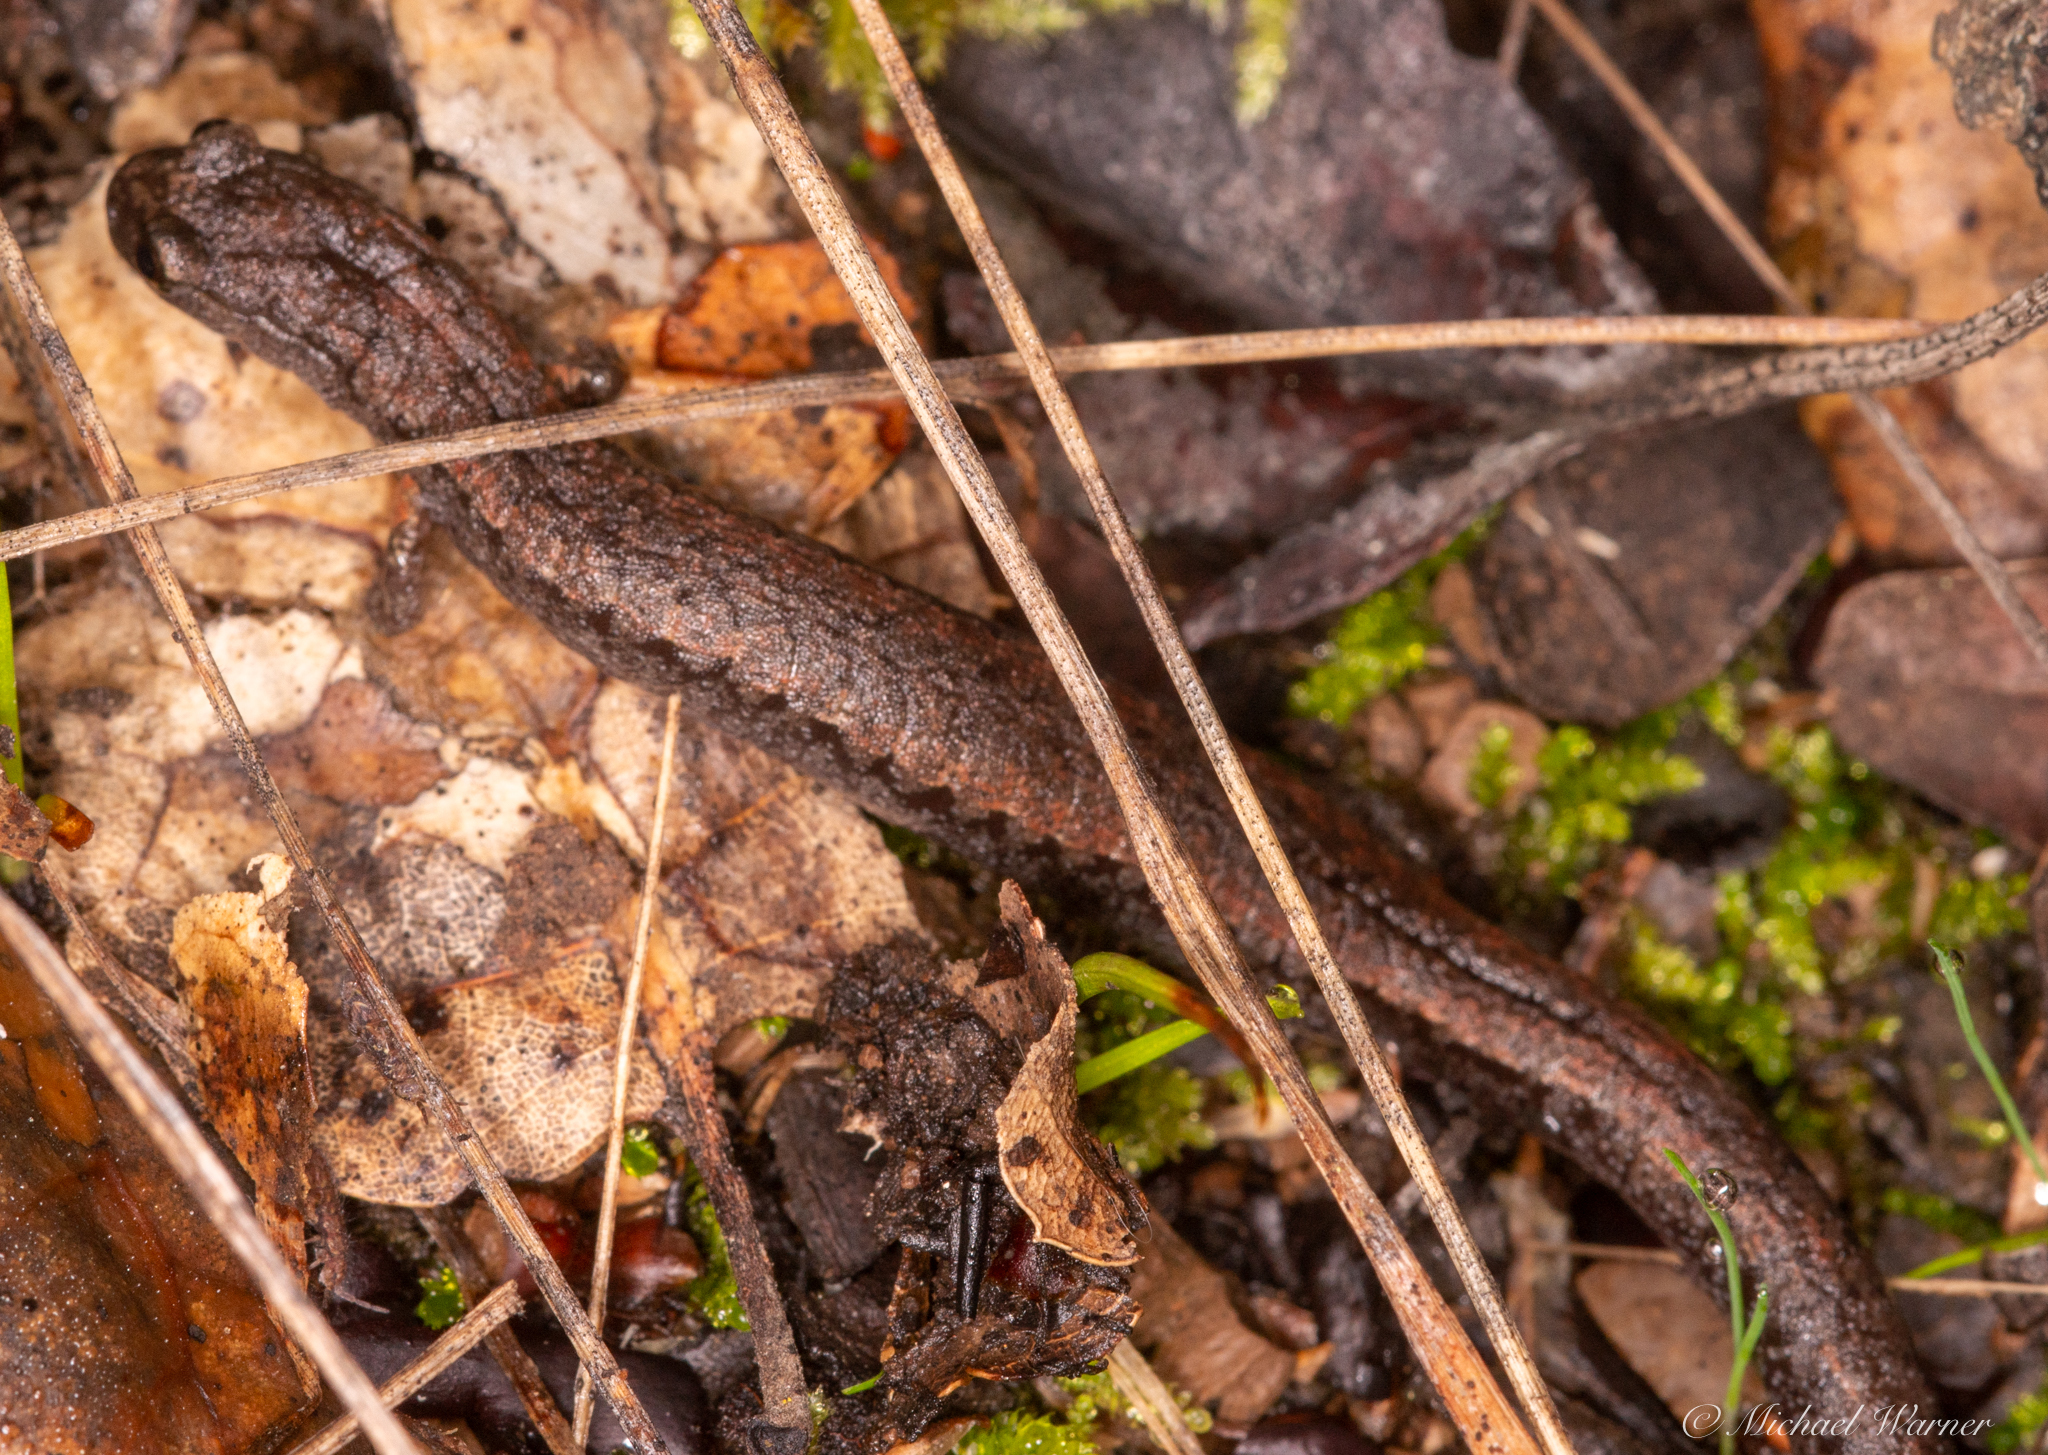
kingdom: Animalia
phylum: Chordata
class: Amphibia
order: Caudata
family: Plethodontidae
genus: Batrachoseps
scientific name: Batrachoseps attenuatus
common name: California slender salamander
